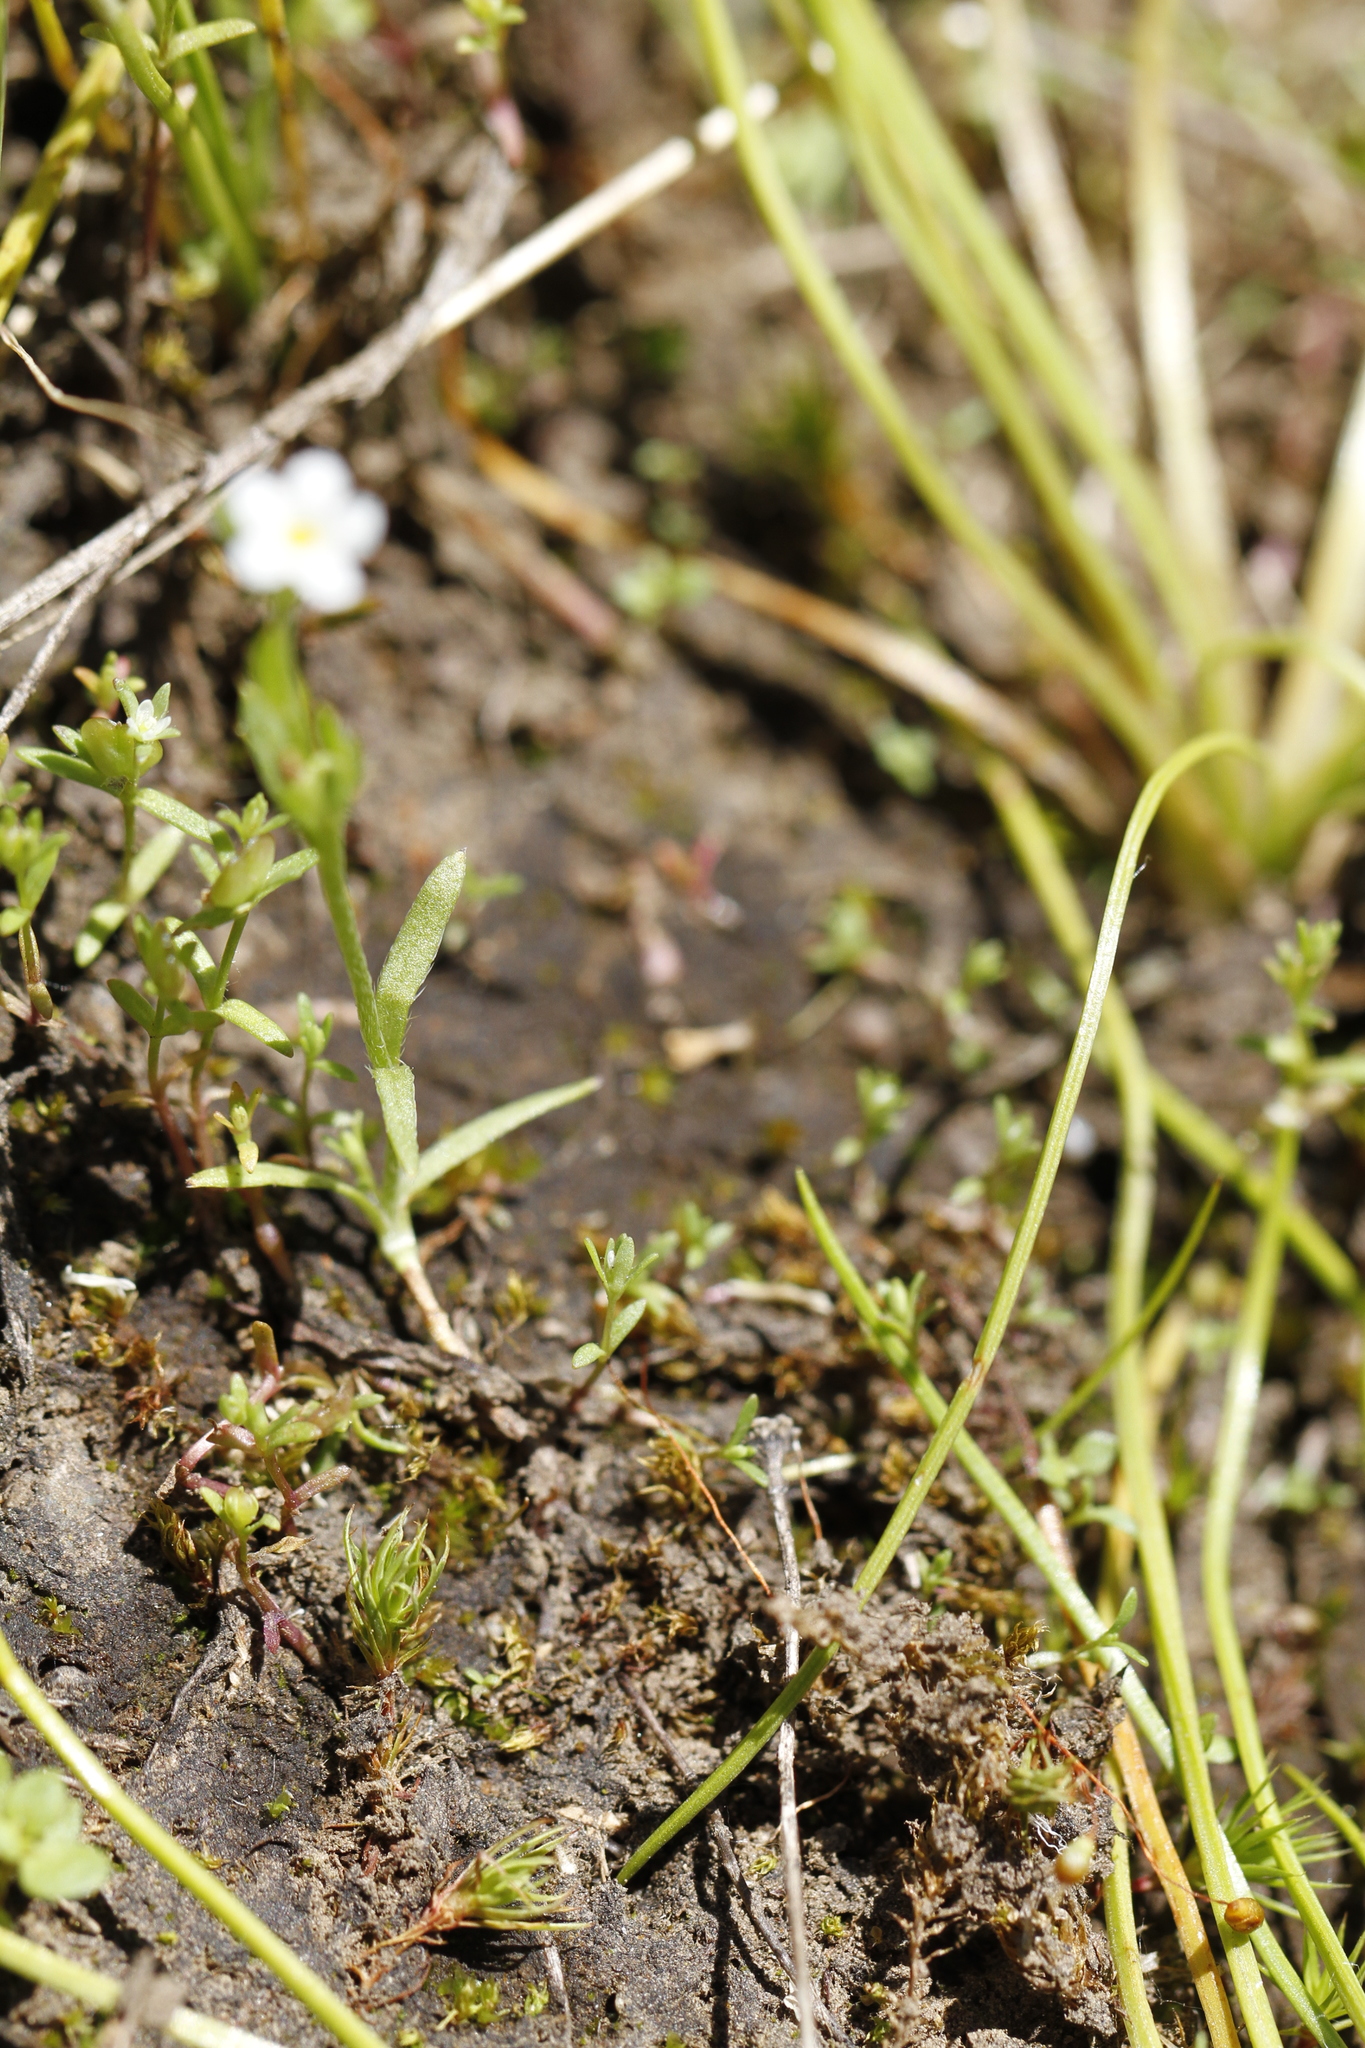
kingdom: Plantae
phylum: Tracheophyta
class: Magnoliopsida
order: Boraginales
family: Boraginaceae
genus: Plagiobothrys
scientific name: Plagiobothrys scouleri
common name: White forget-me-not
